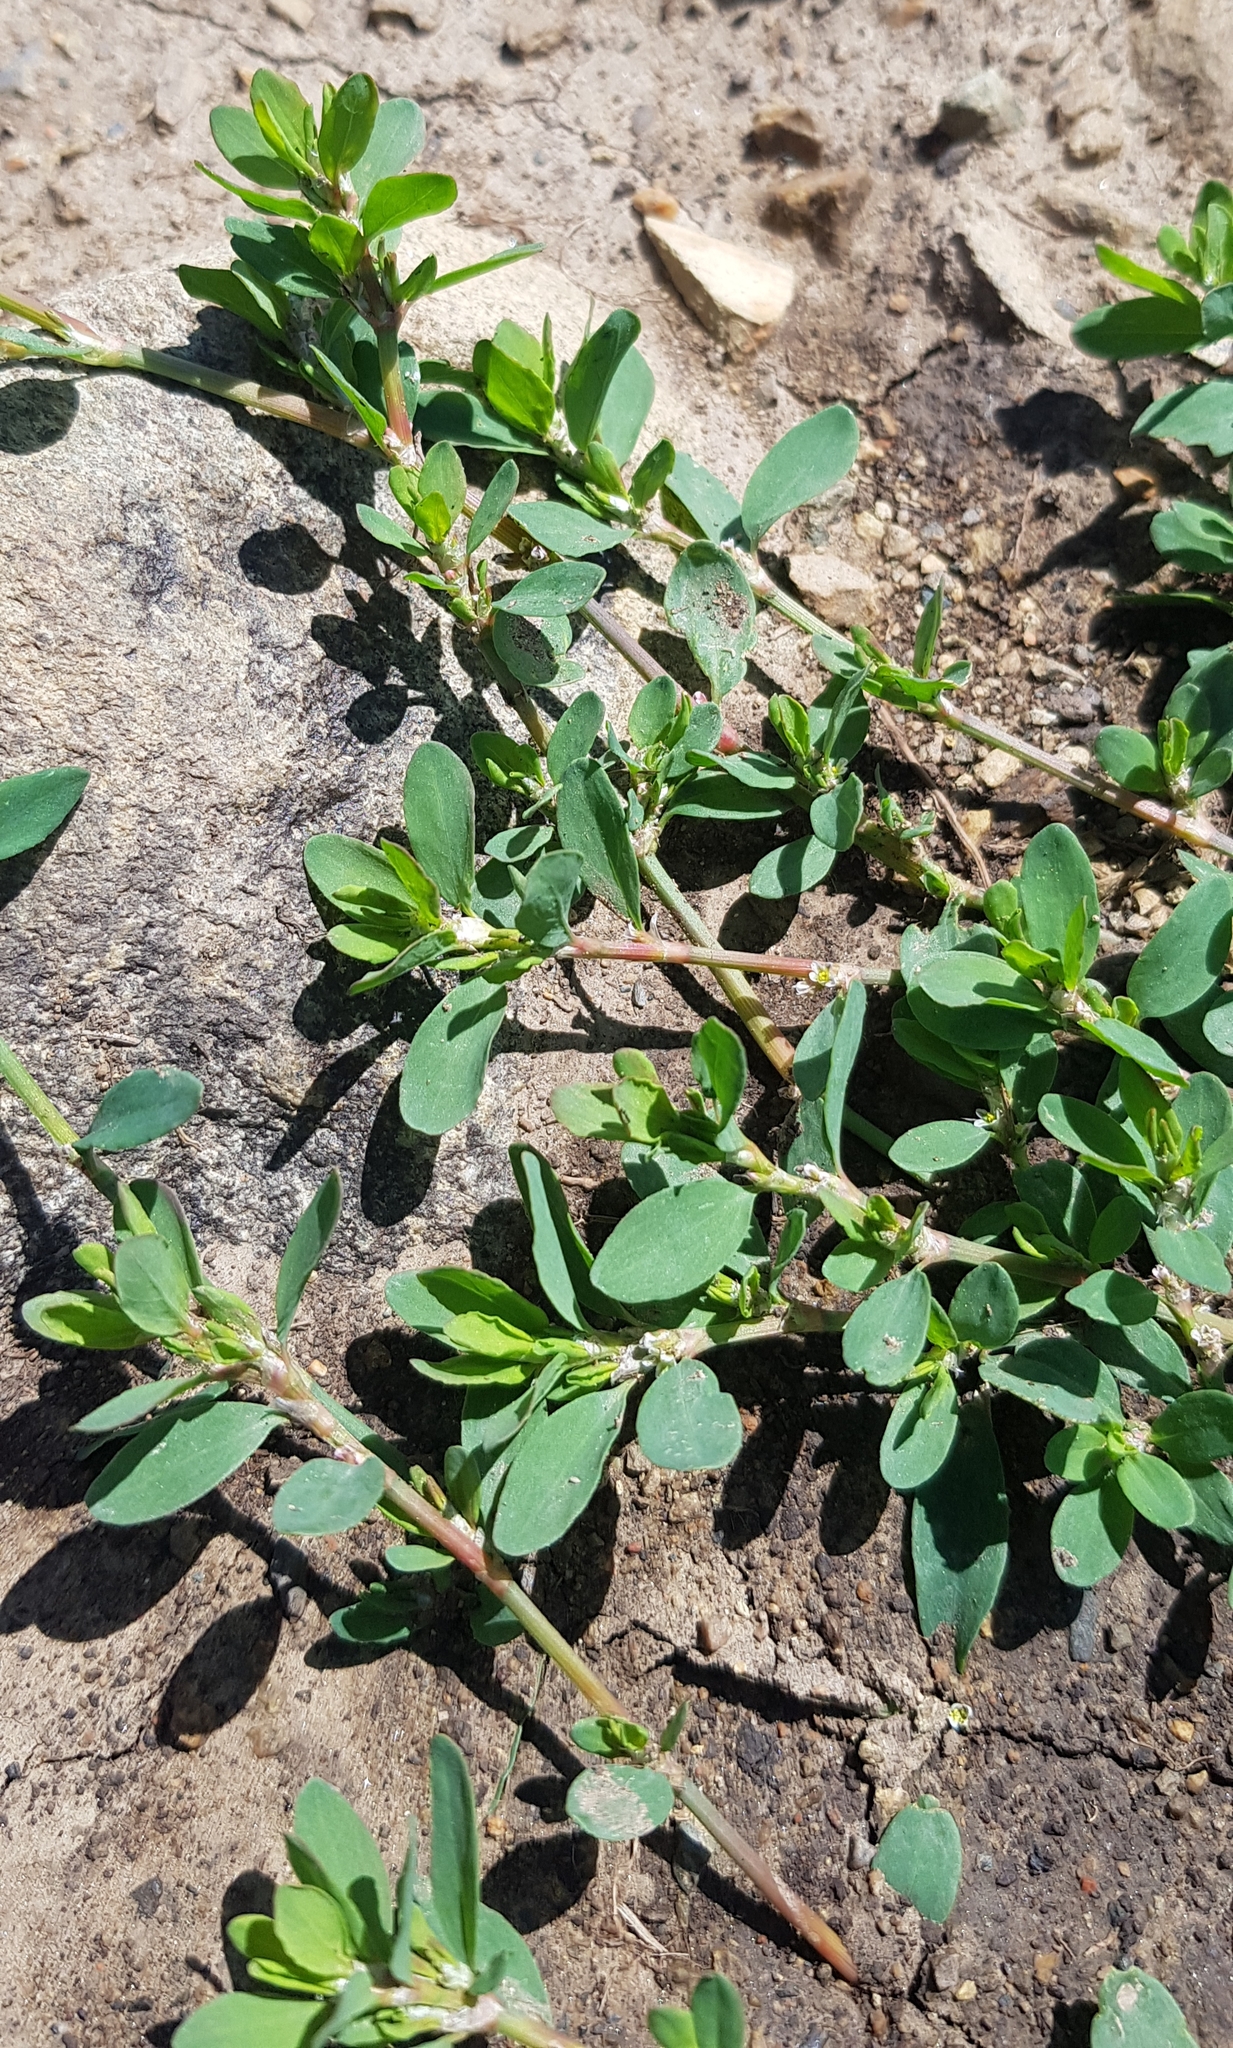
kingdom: Plantae
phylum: Tracheophyta
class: Magnoliopsida
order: Caryophyllales
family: Polygonaceae
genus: Polygonum
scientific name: Polygonum aviculare
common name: Prostrate knotweed
